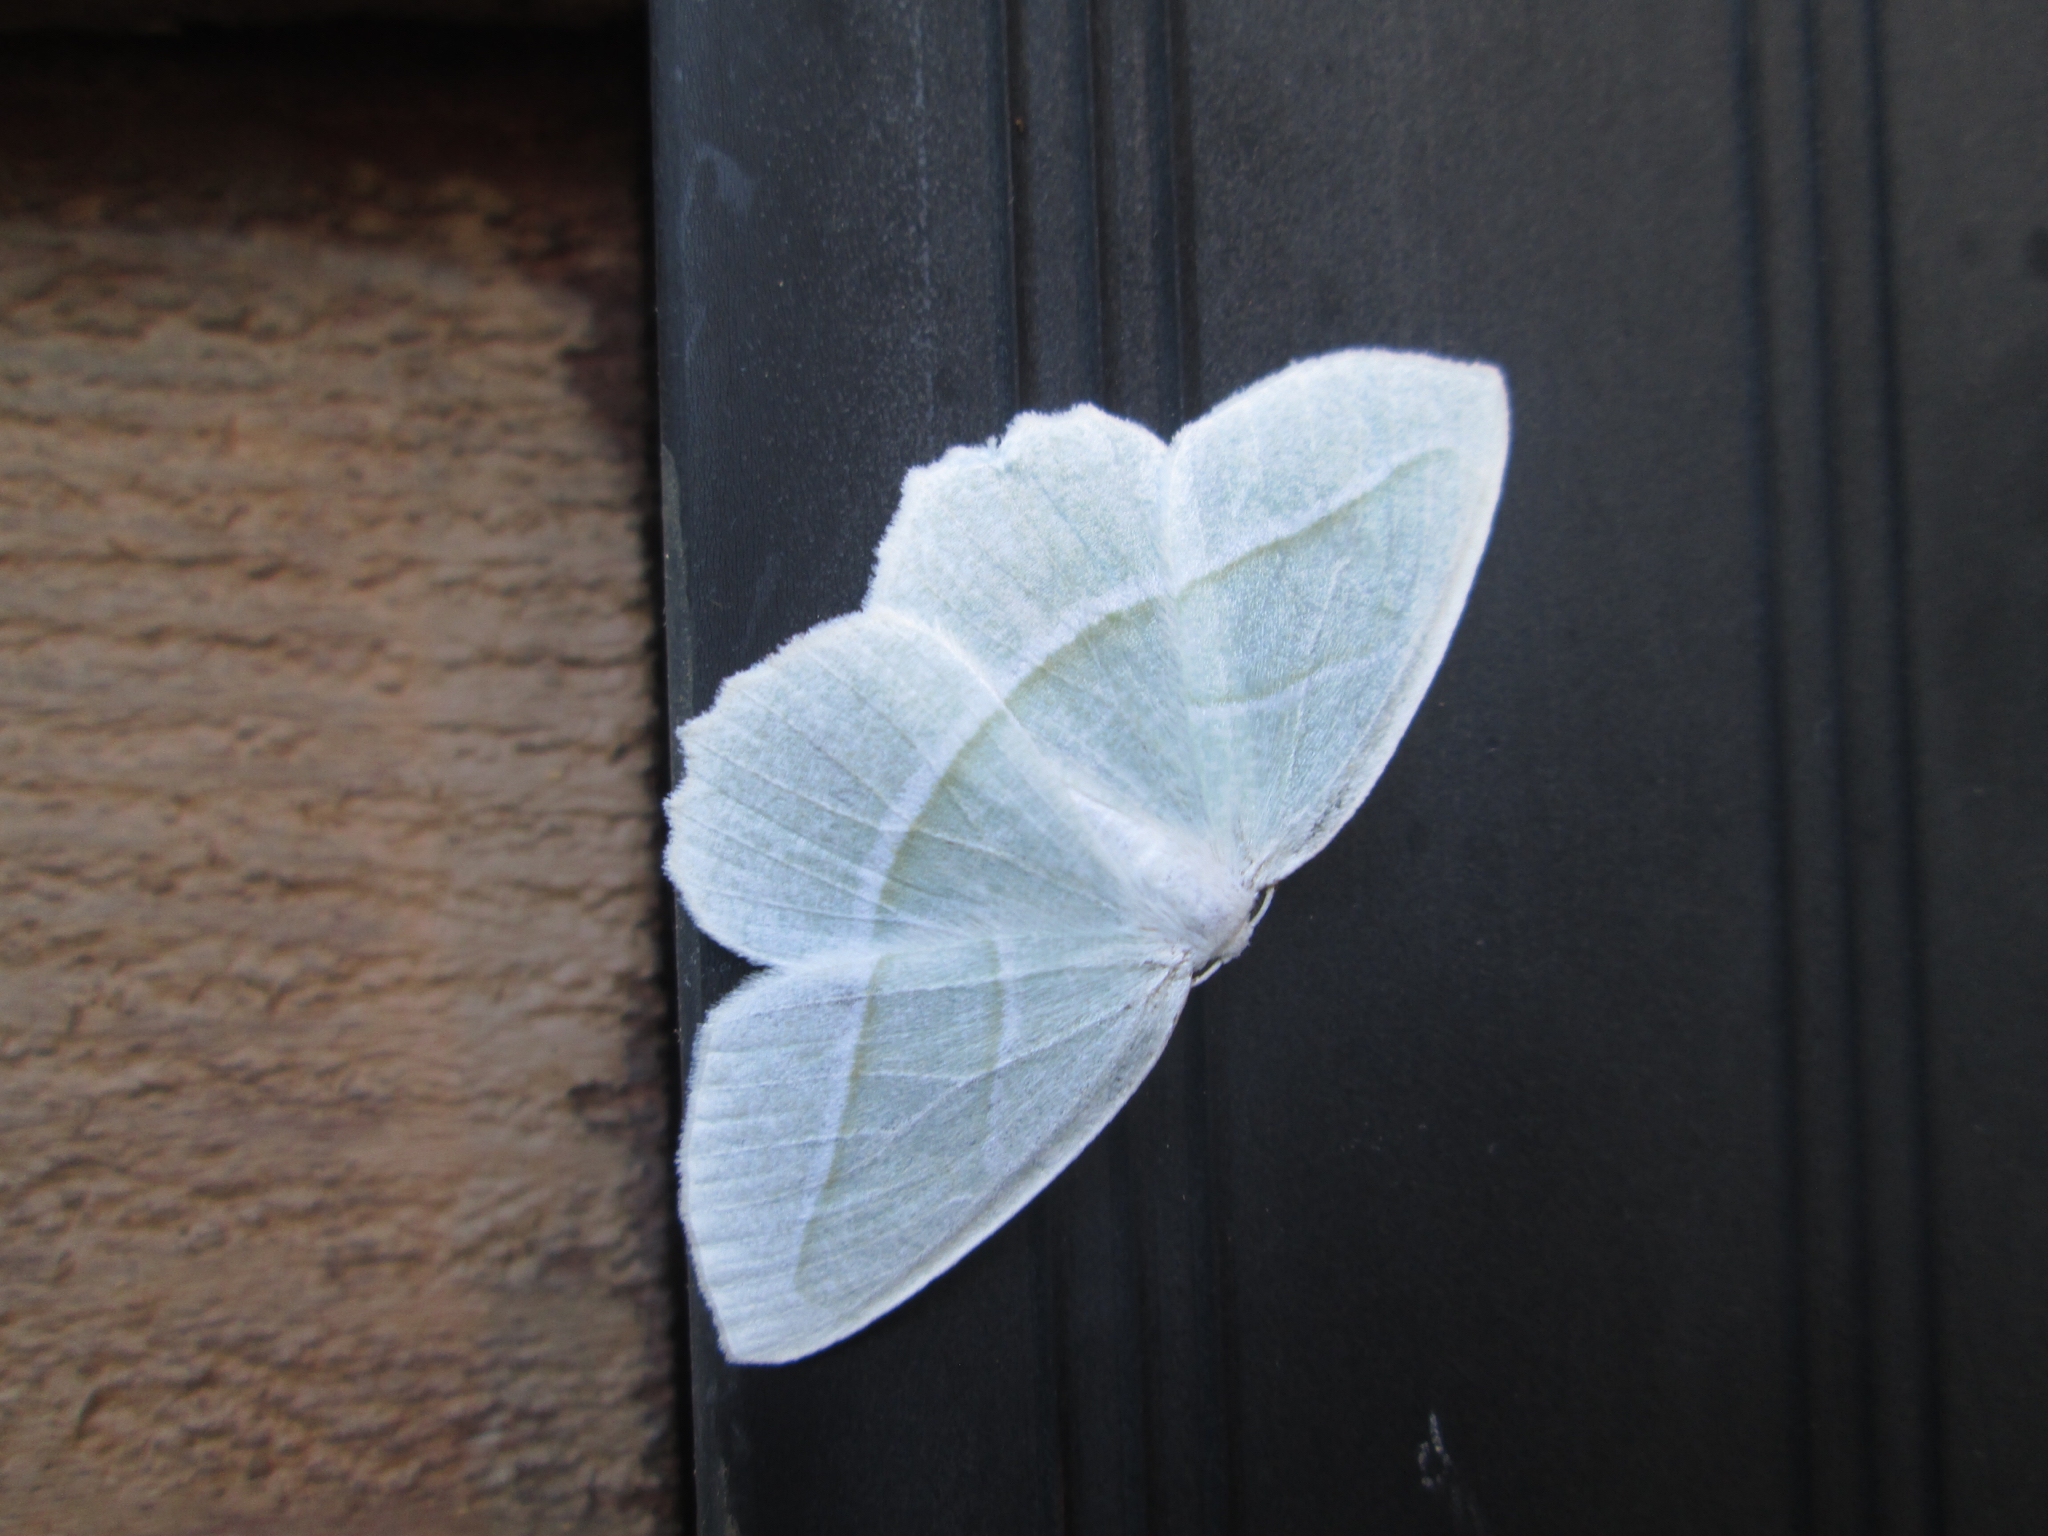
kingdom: Animalia
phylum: Arthropoda
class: Insecta
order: Lepidoptera
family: Geometridae
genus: Campaea
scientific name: Campaea perlata
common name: Fringed looper
